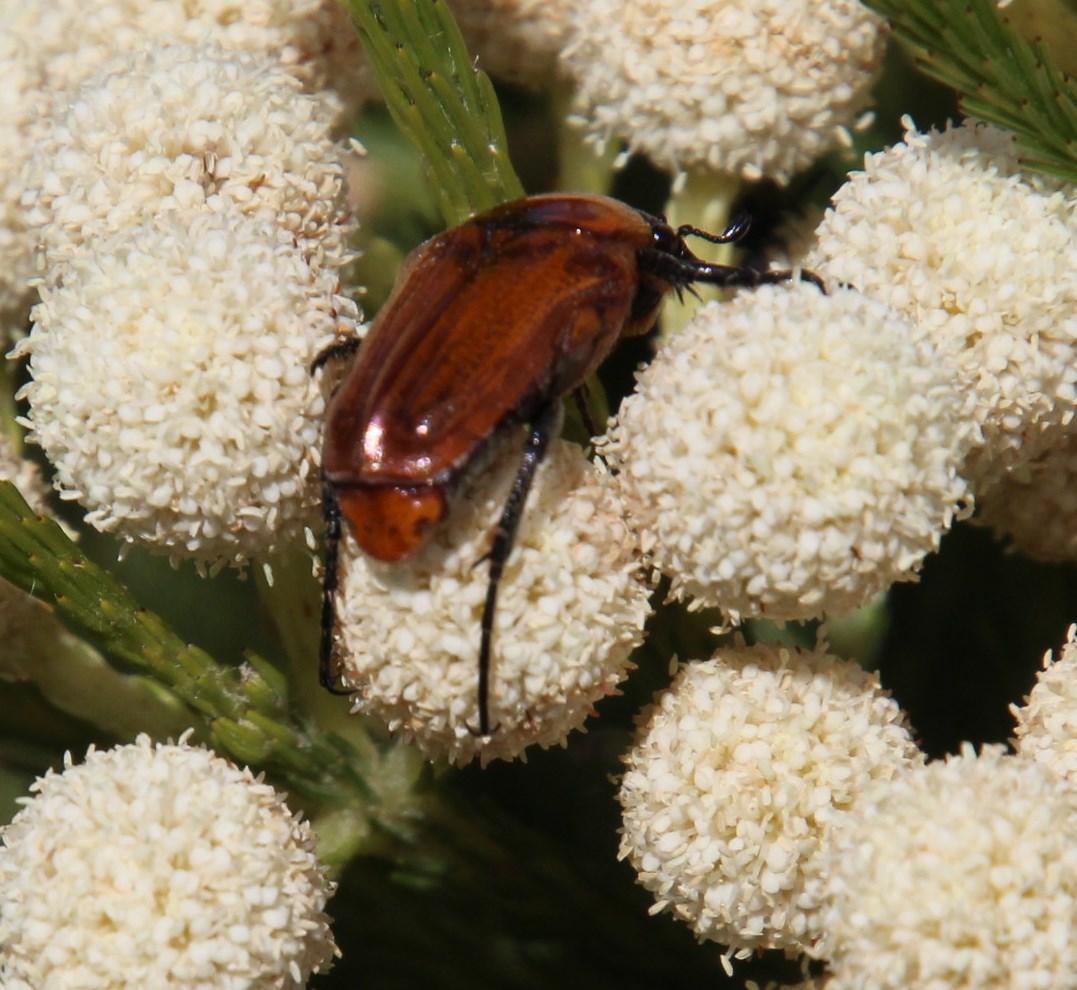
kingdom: Animalia
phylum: Arthropoda
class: Insecta
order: Coleoptera
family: Scarabaeidae
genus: Leucocelis
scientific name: Leucocelis rubra
